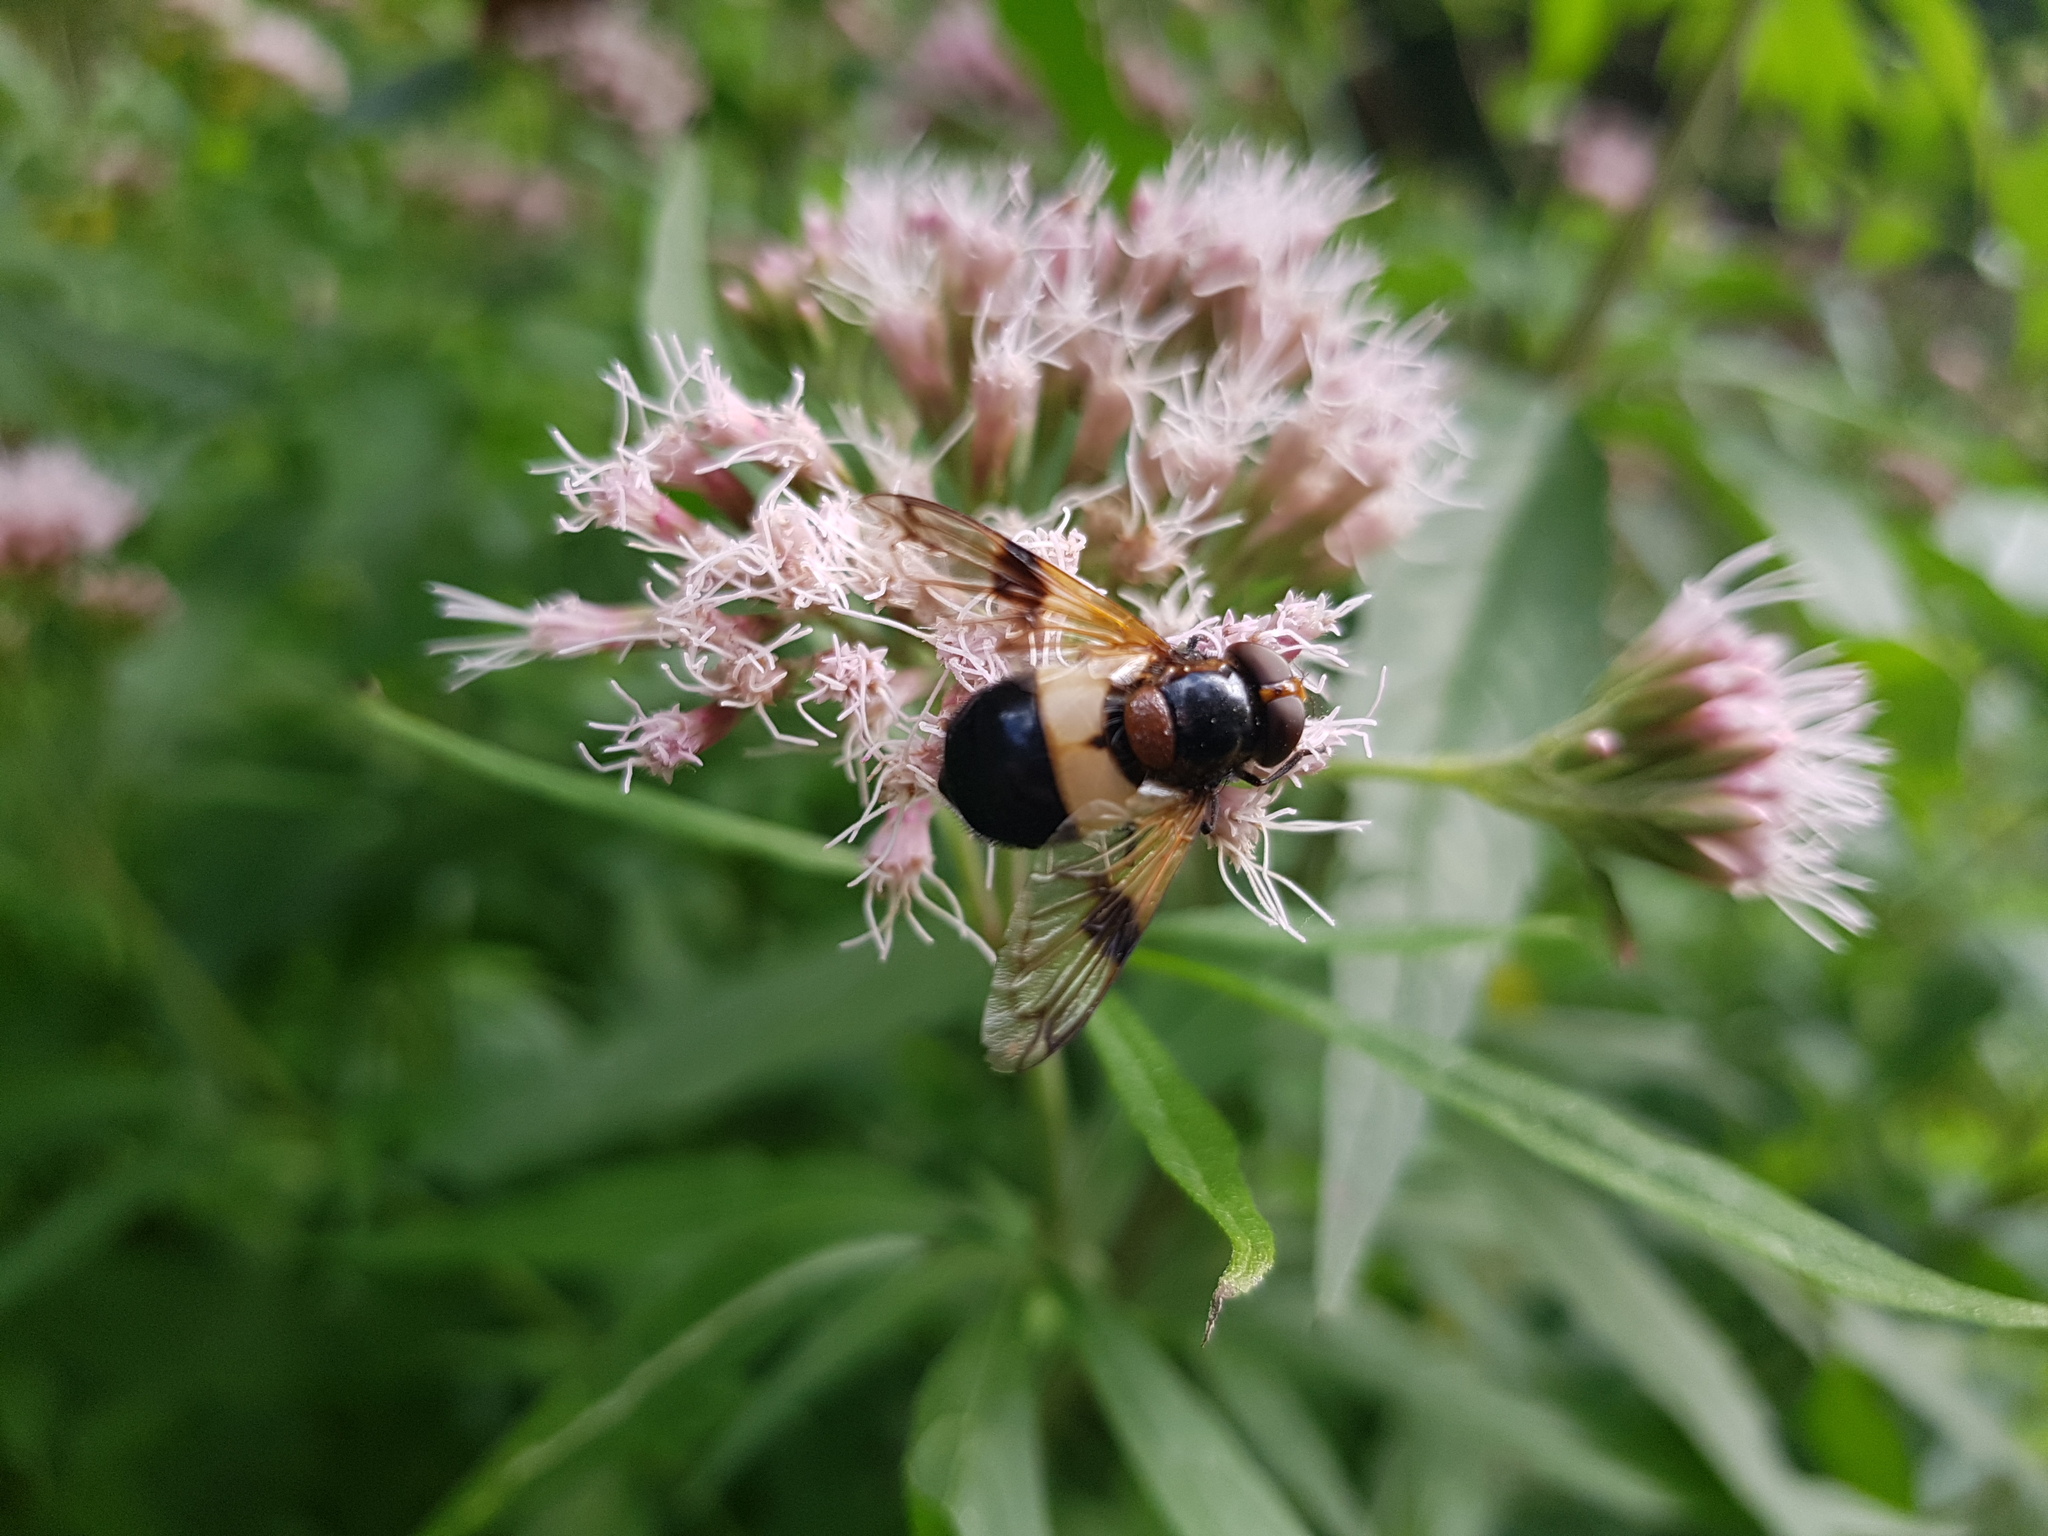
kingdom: Animalia
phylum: Arthropoda
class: Insecta
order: Diptera
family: Syrphidae
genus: Volucella
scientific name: Volucella pellucens
